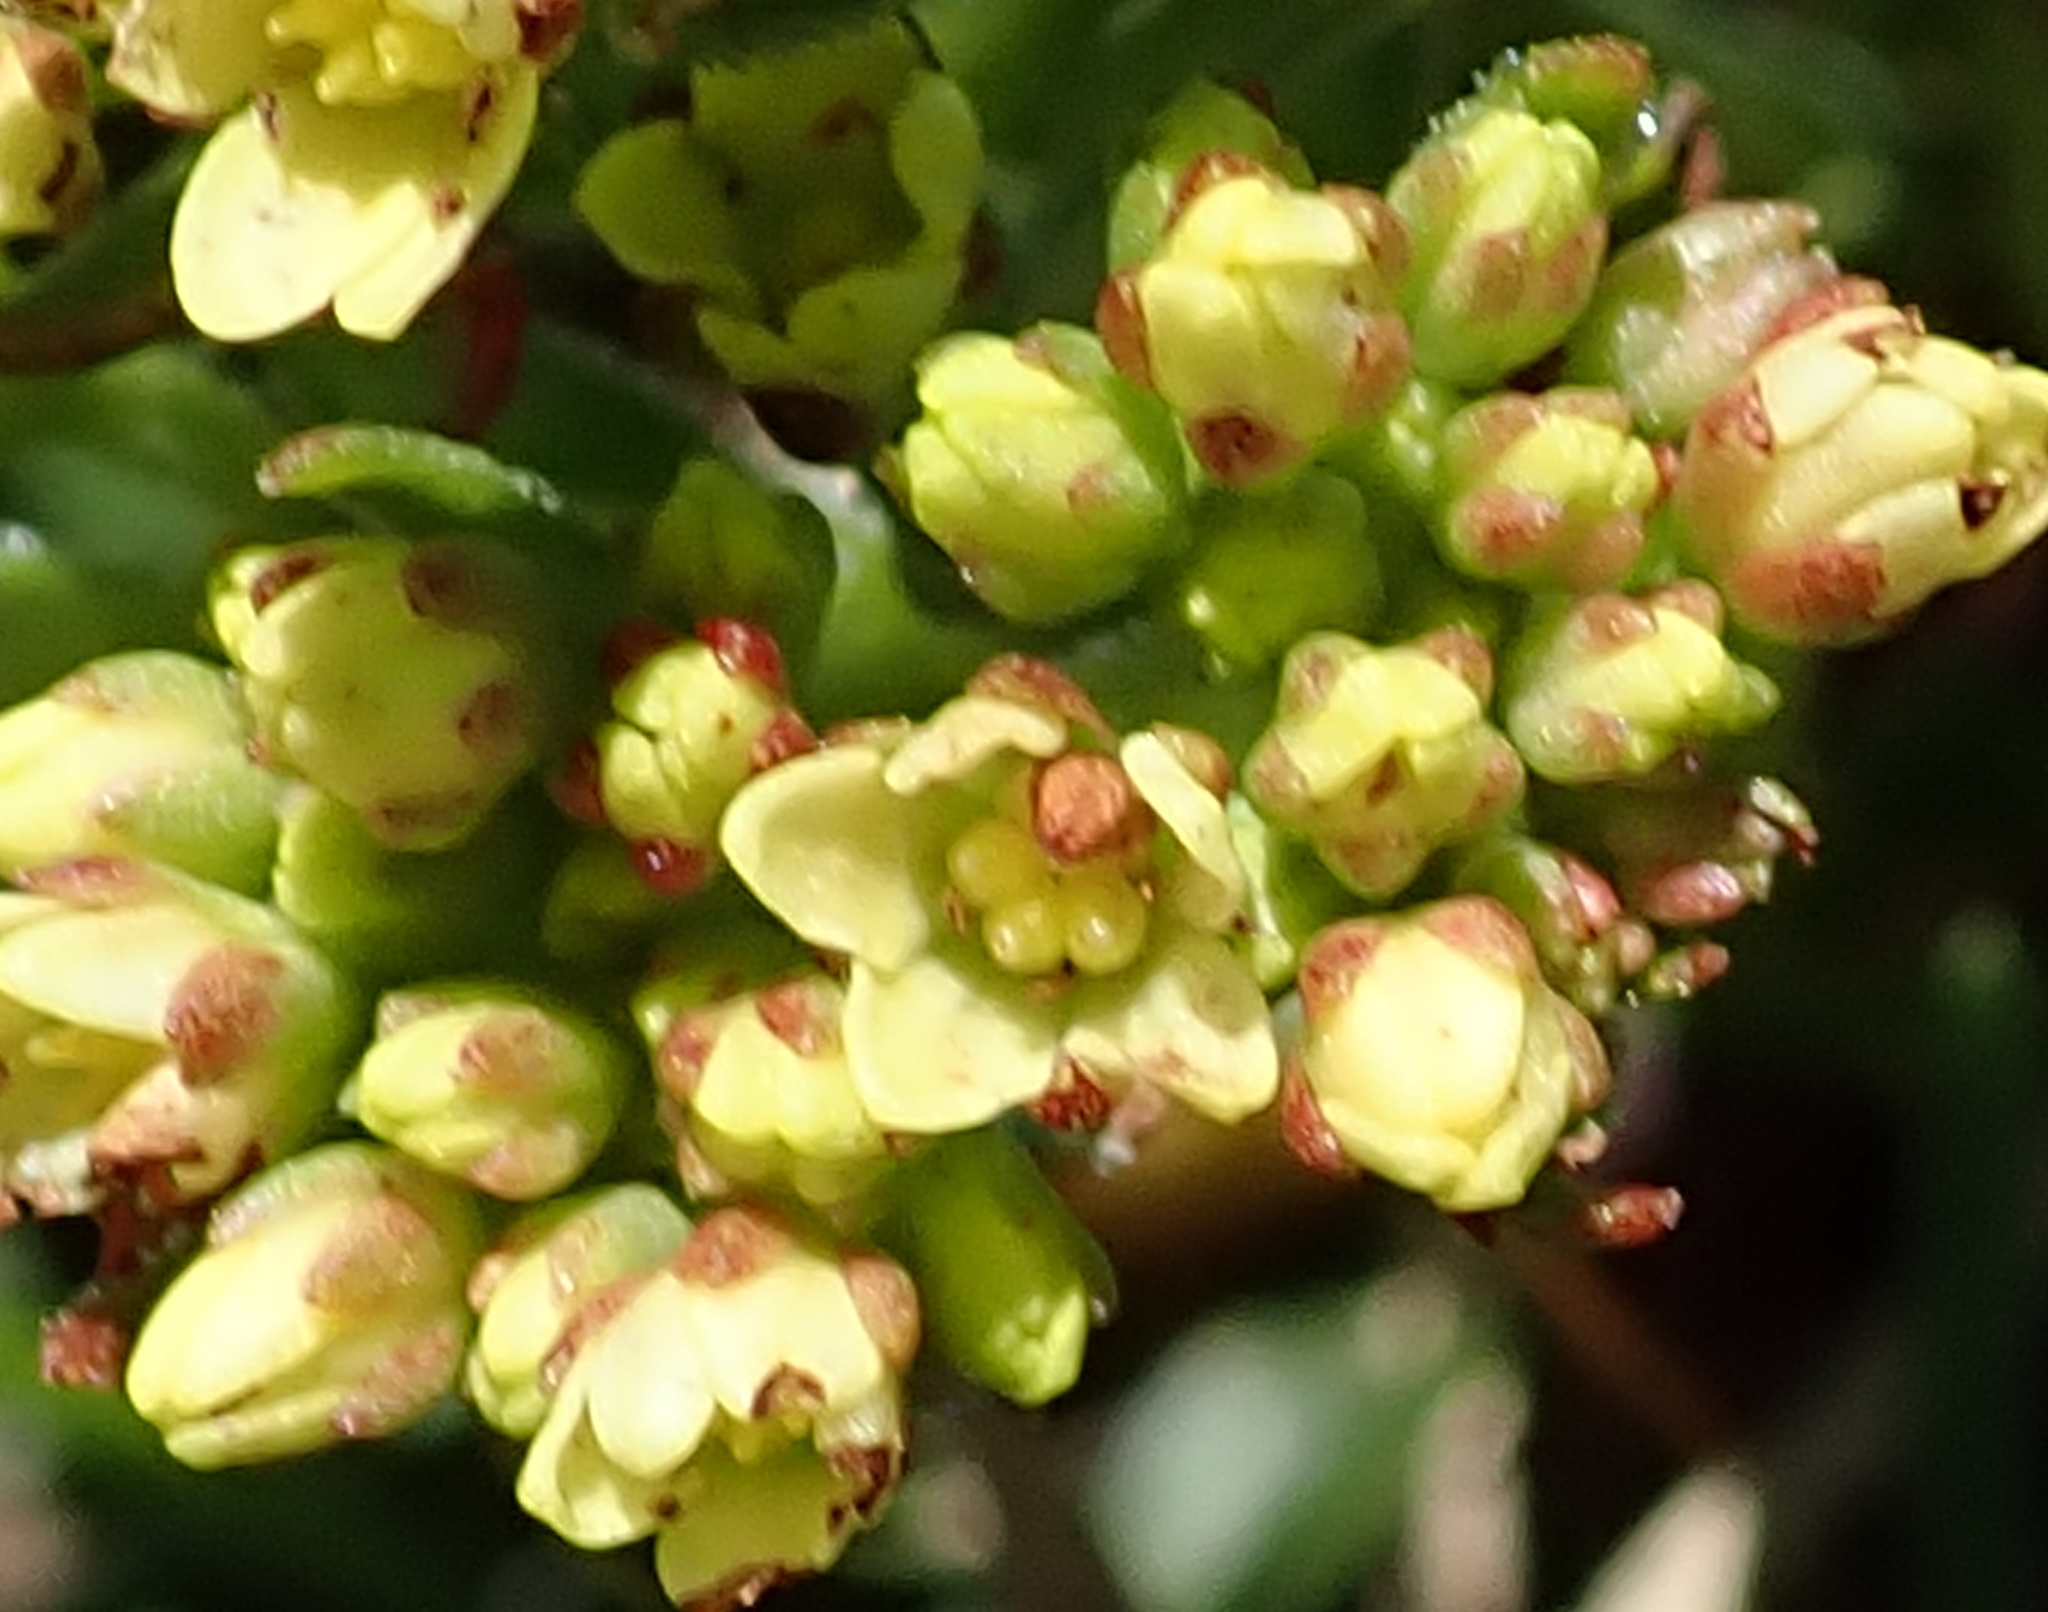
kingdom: Plantae
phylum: Tracheophyta
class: Magnoliopsida
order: Saxifragales
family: Crassulaceae
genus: Crassula
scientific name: Crassula vaginata
